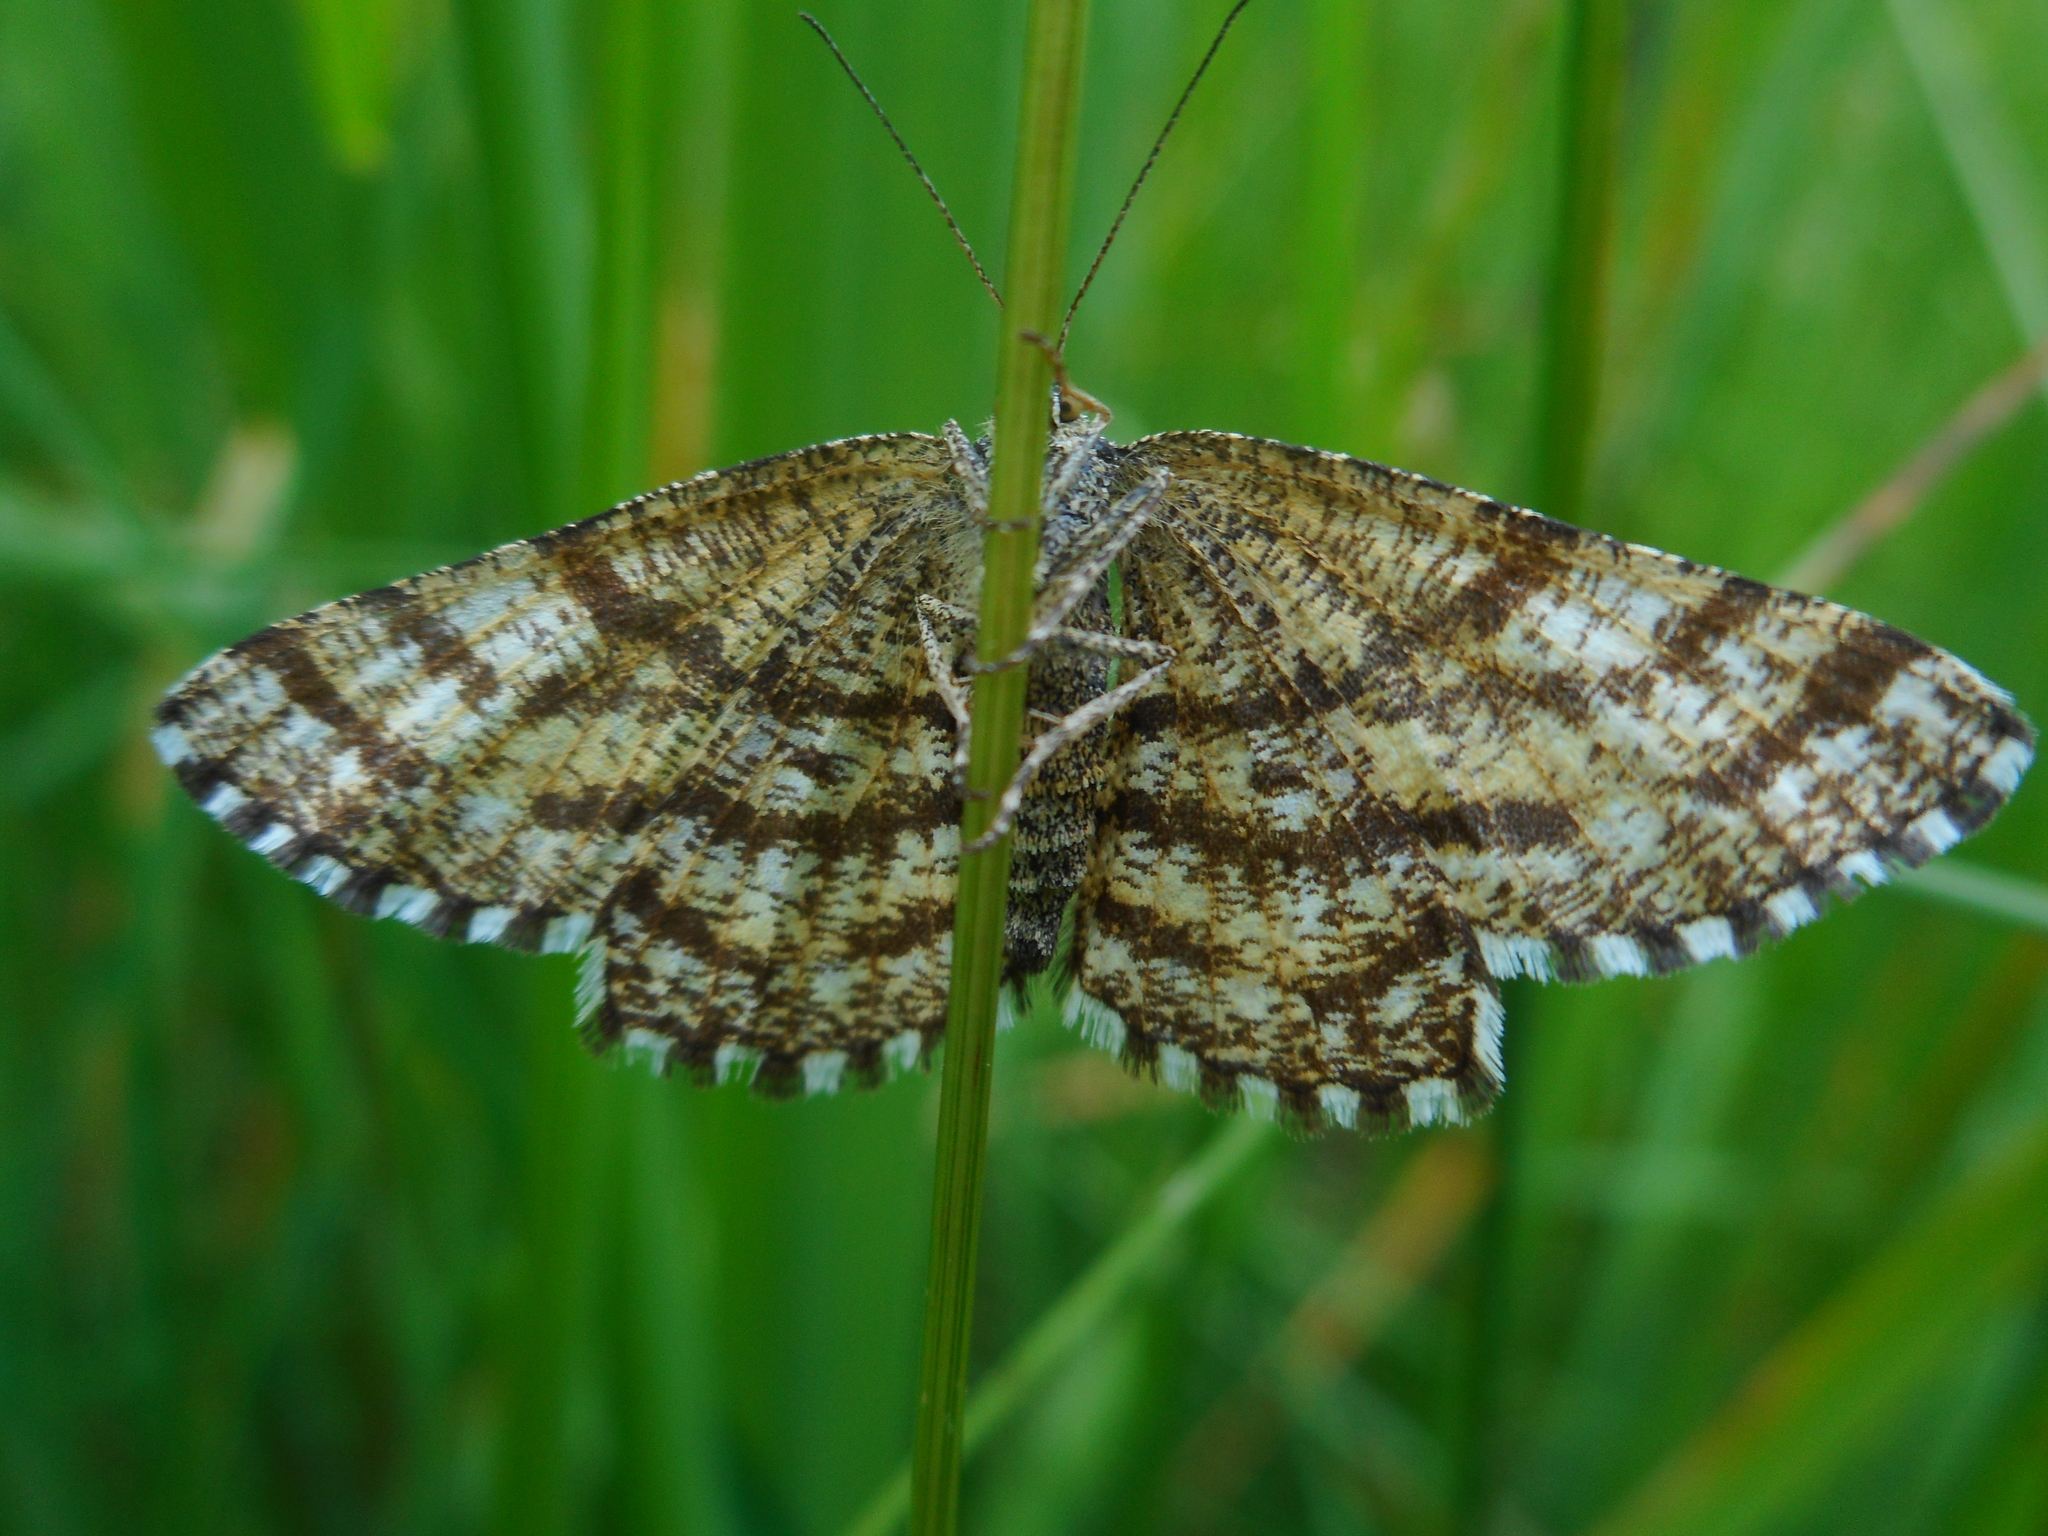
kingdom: Animalia
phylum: Arthropoda
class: Insecta
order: Lepidoptera
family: Geometridae
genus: Ematurga
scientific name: Ematurga atomaria
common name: Common heath
